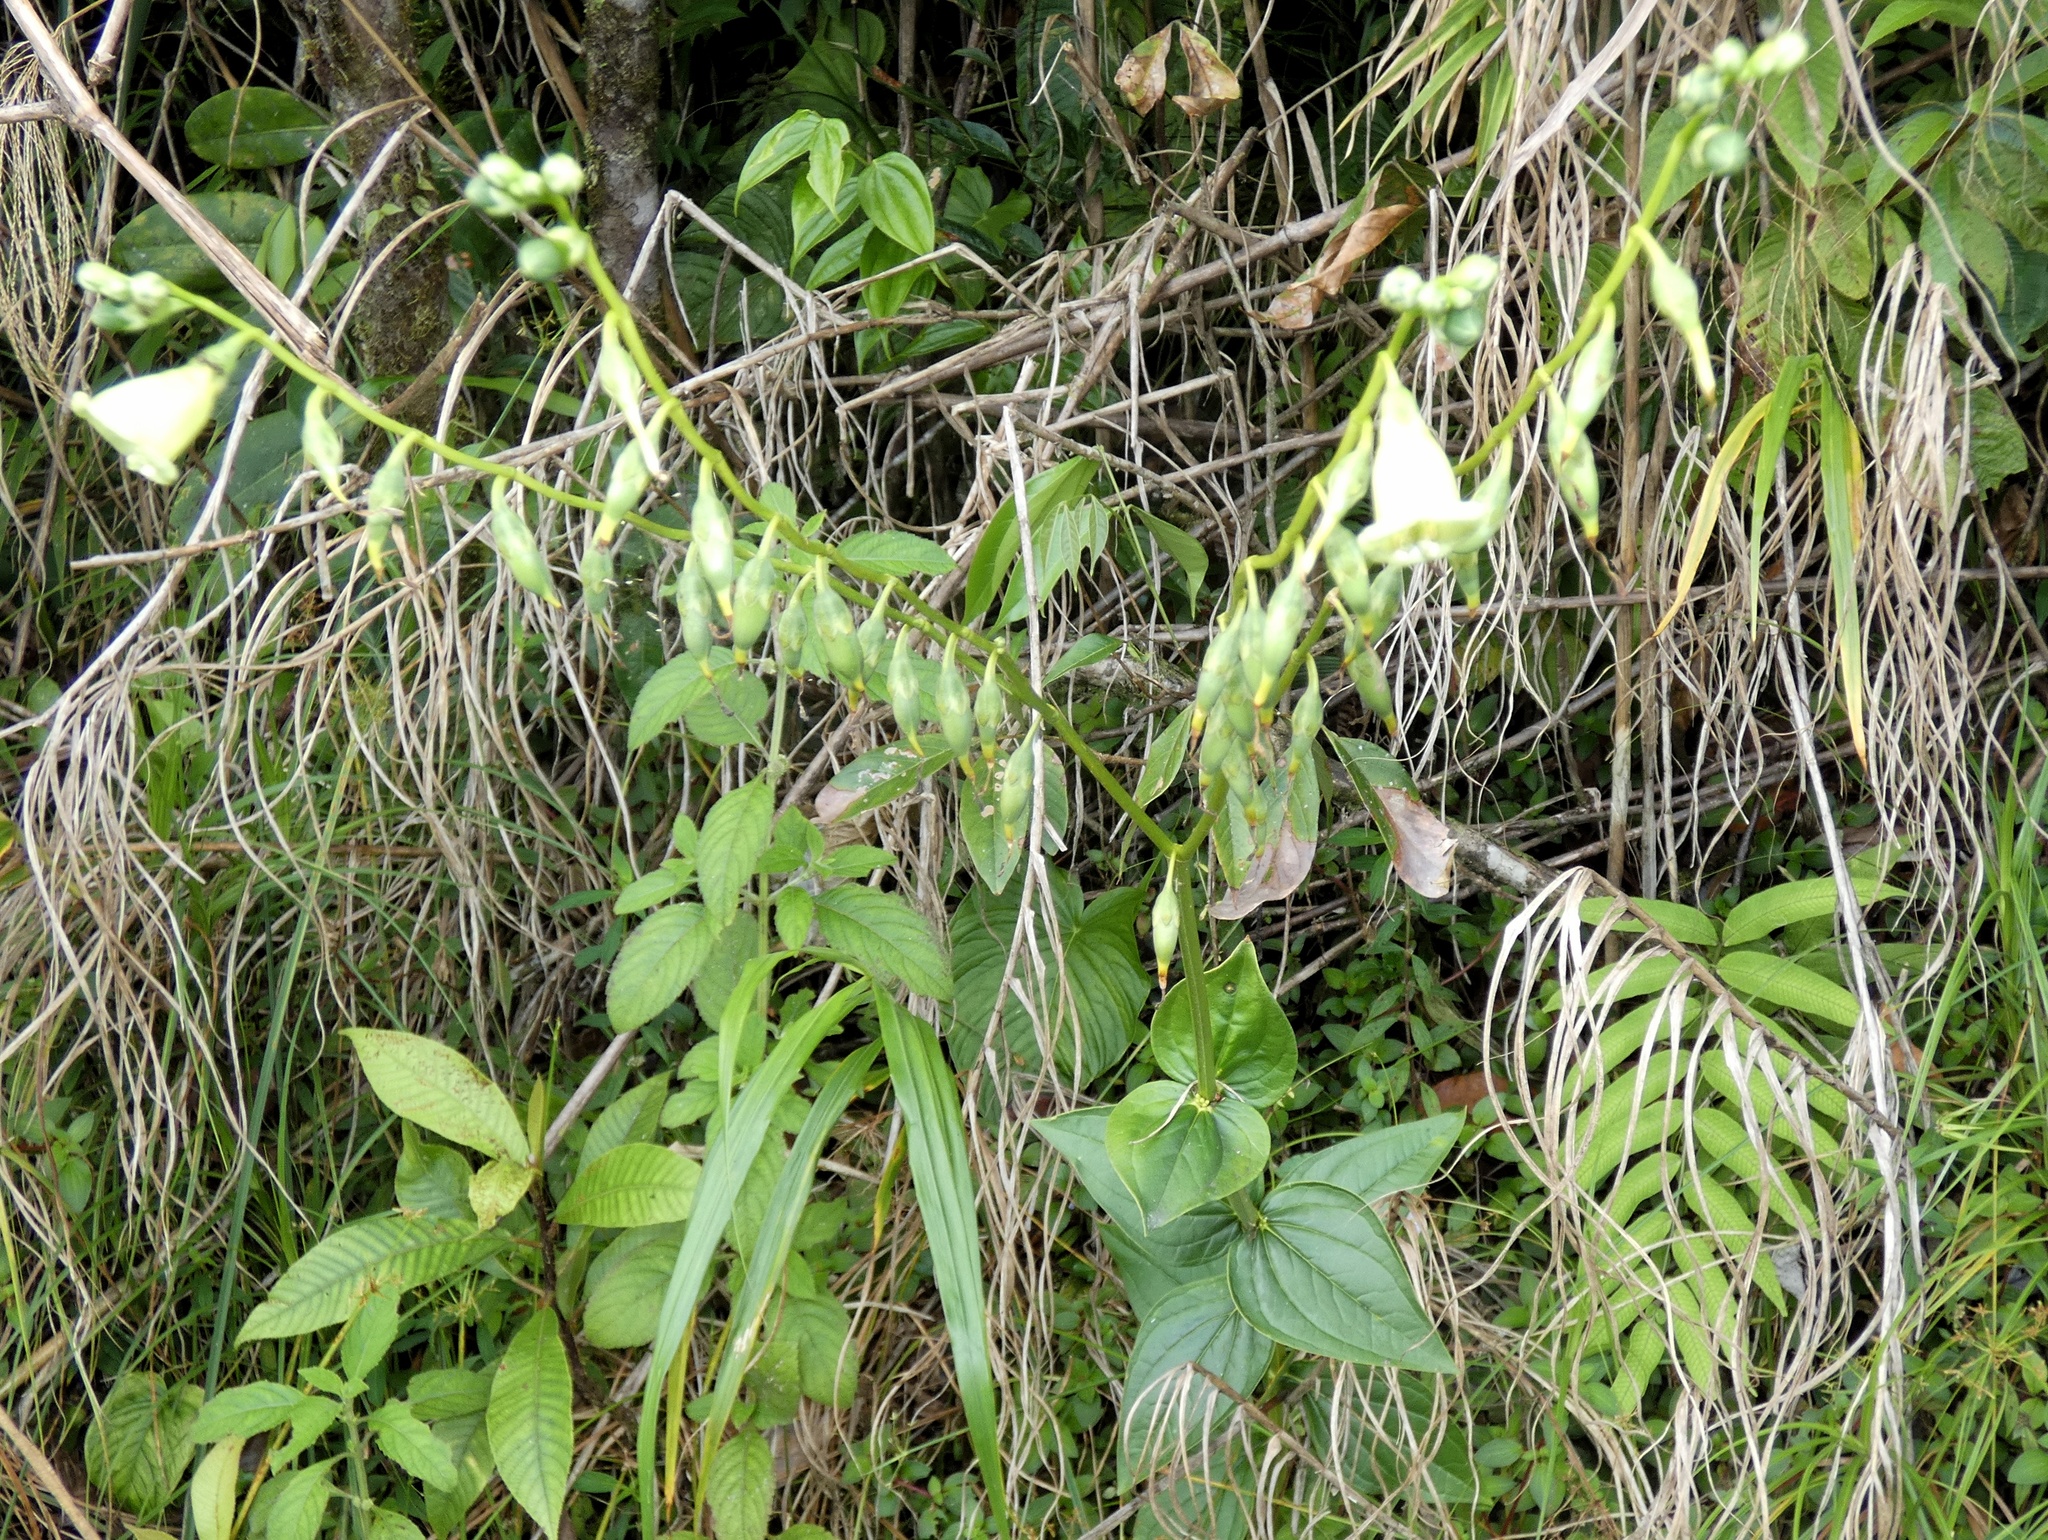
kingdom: Plantae
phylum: Tracheophyta
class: Magnoliopsida
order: Gentianales
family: Gentianaceae
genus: Chelonanthus
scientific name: Chelonanthus alatus
